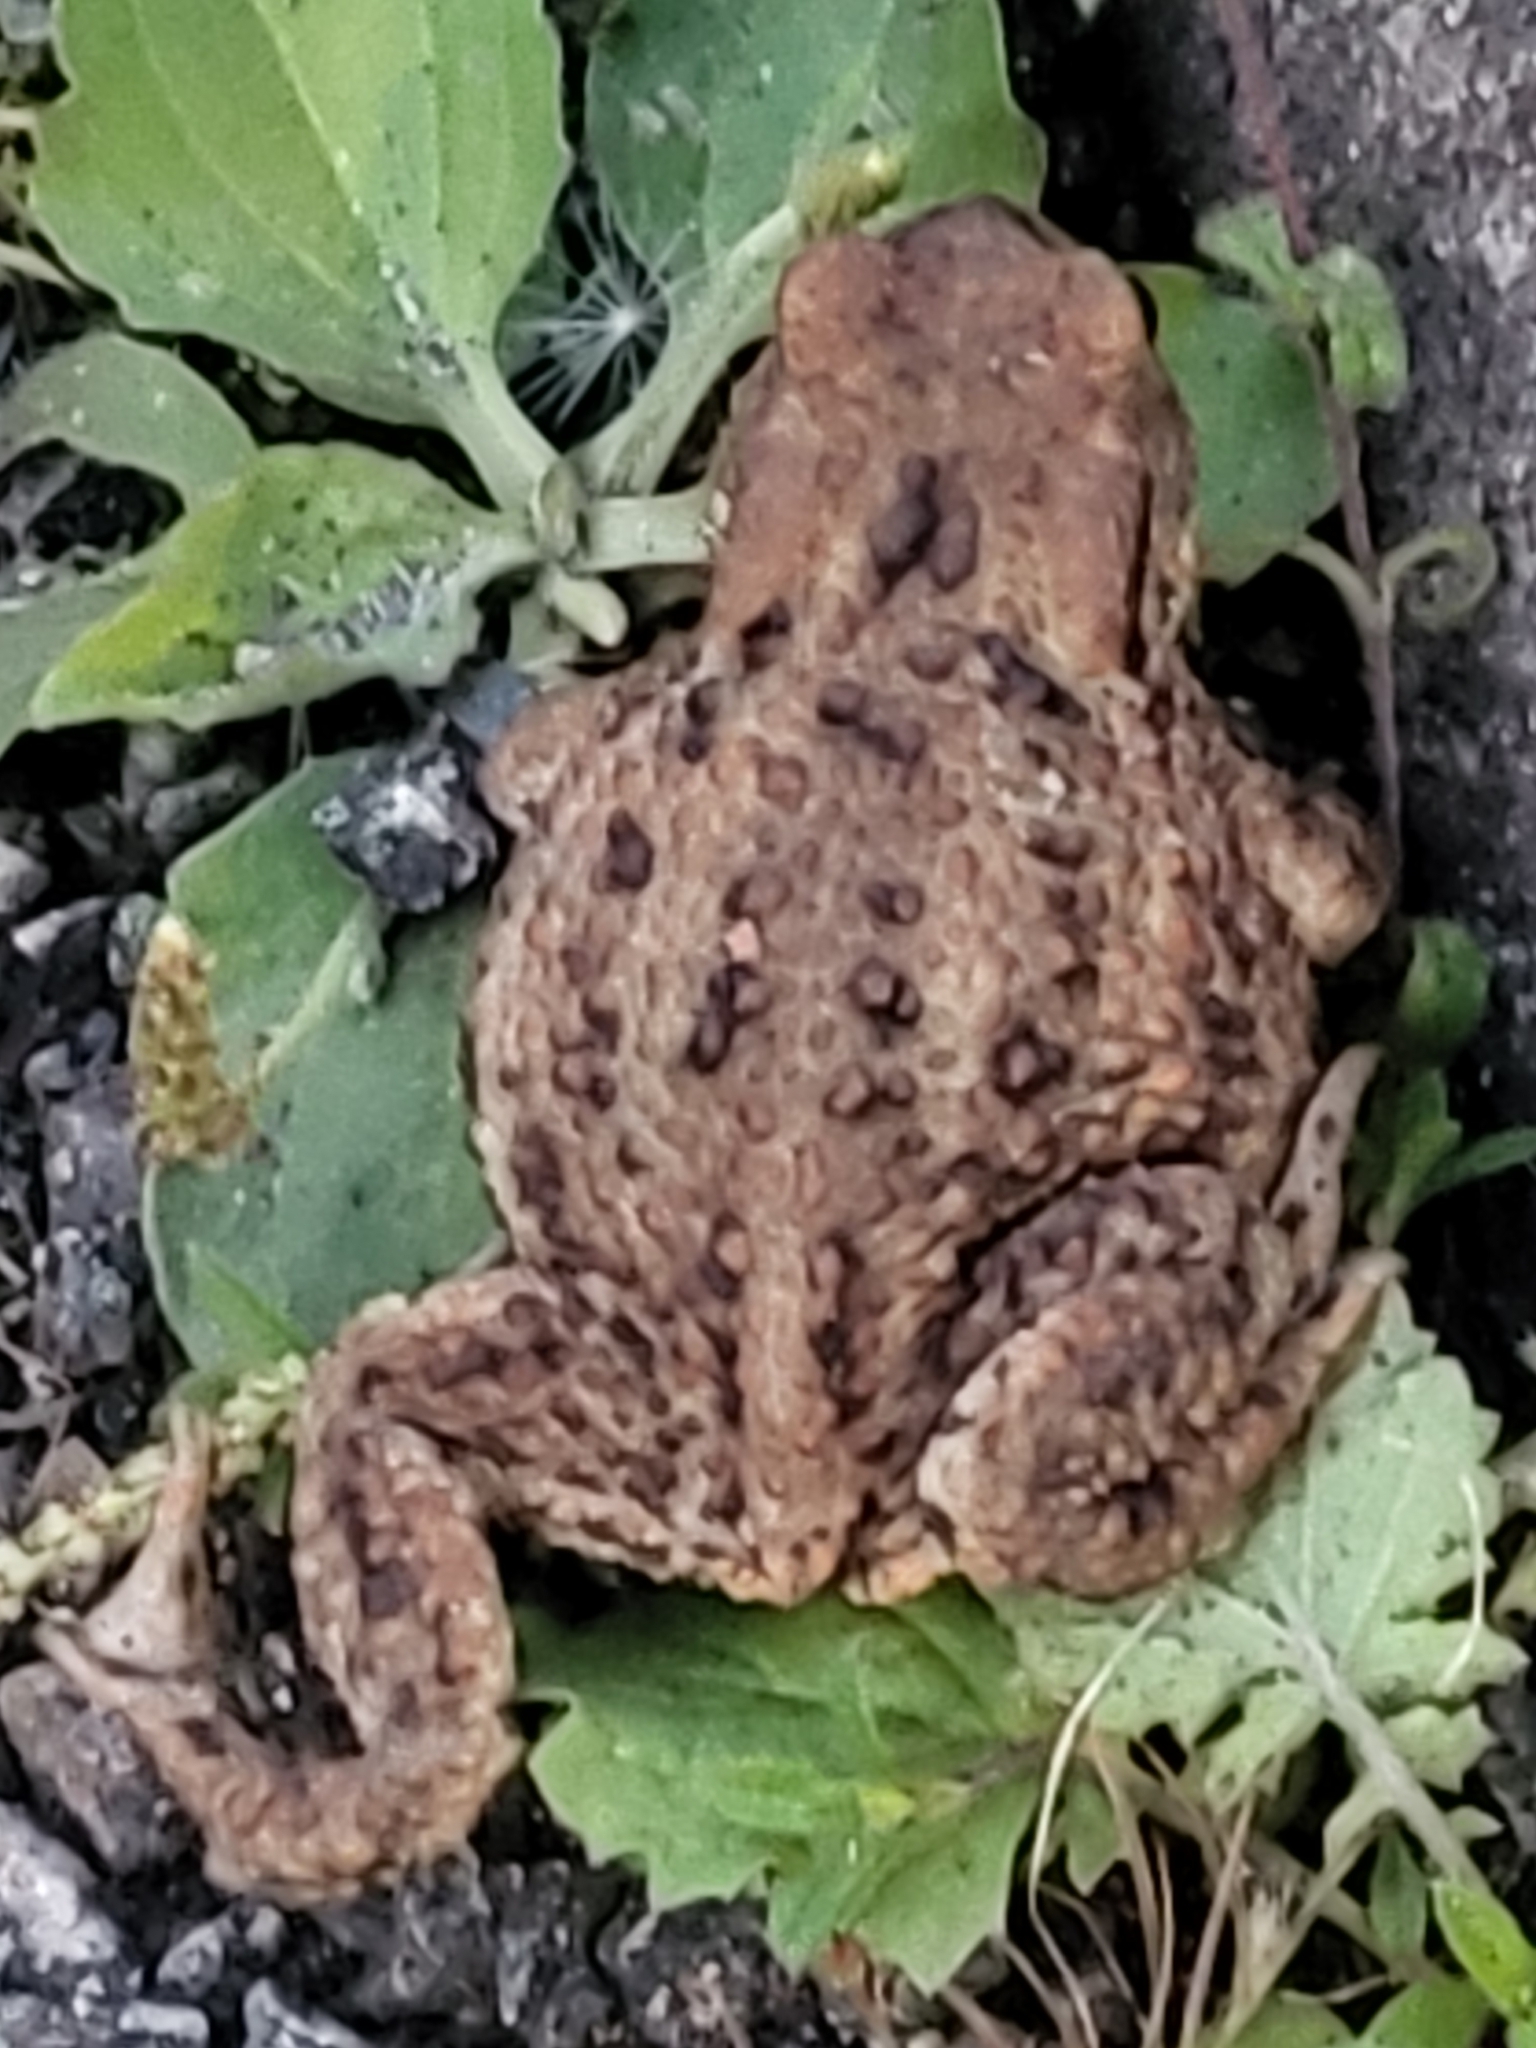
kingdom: Animalia
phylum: Chordata
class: Amphibia
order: Anura
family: Bufonidae
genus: Bufo
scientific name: Bufo bufo
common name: Common toad
